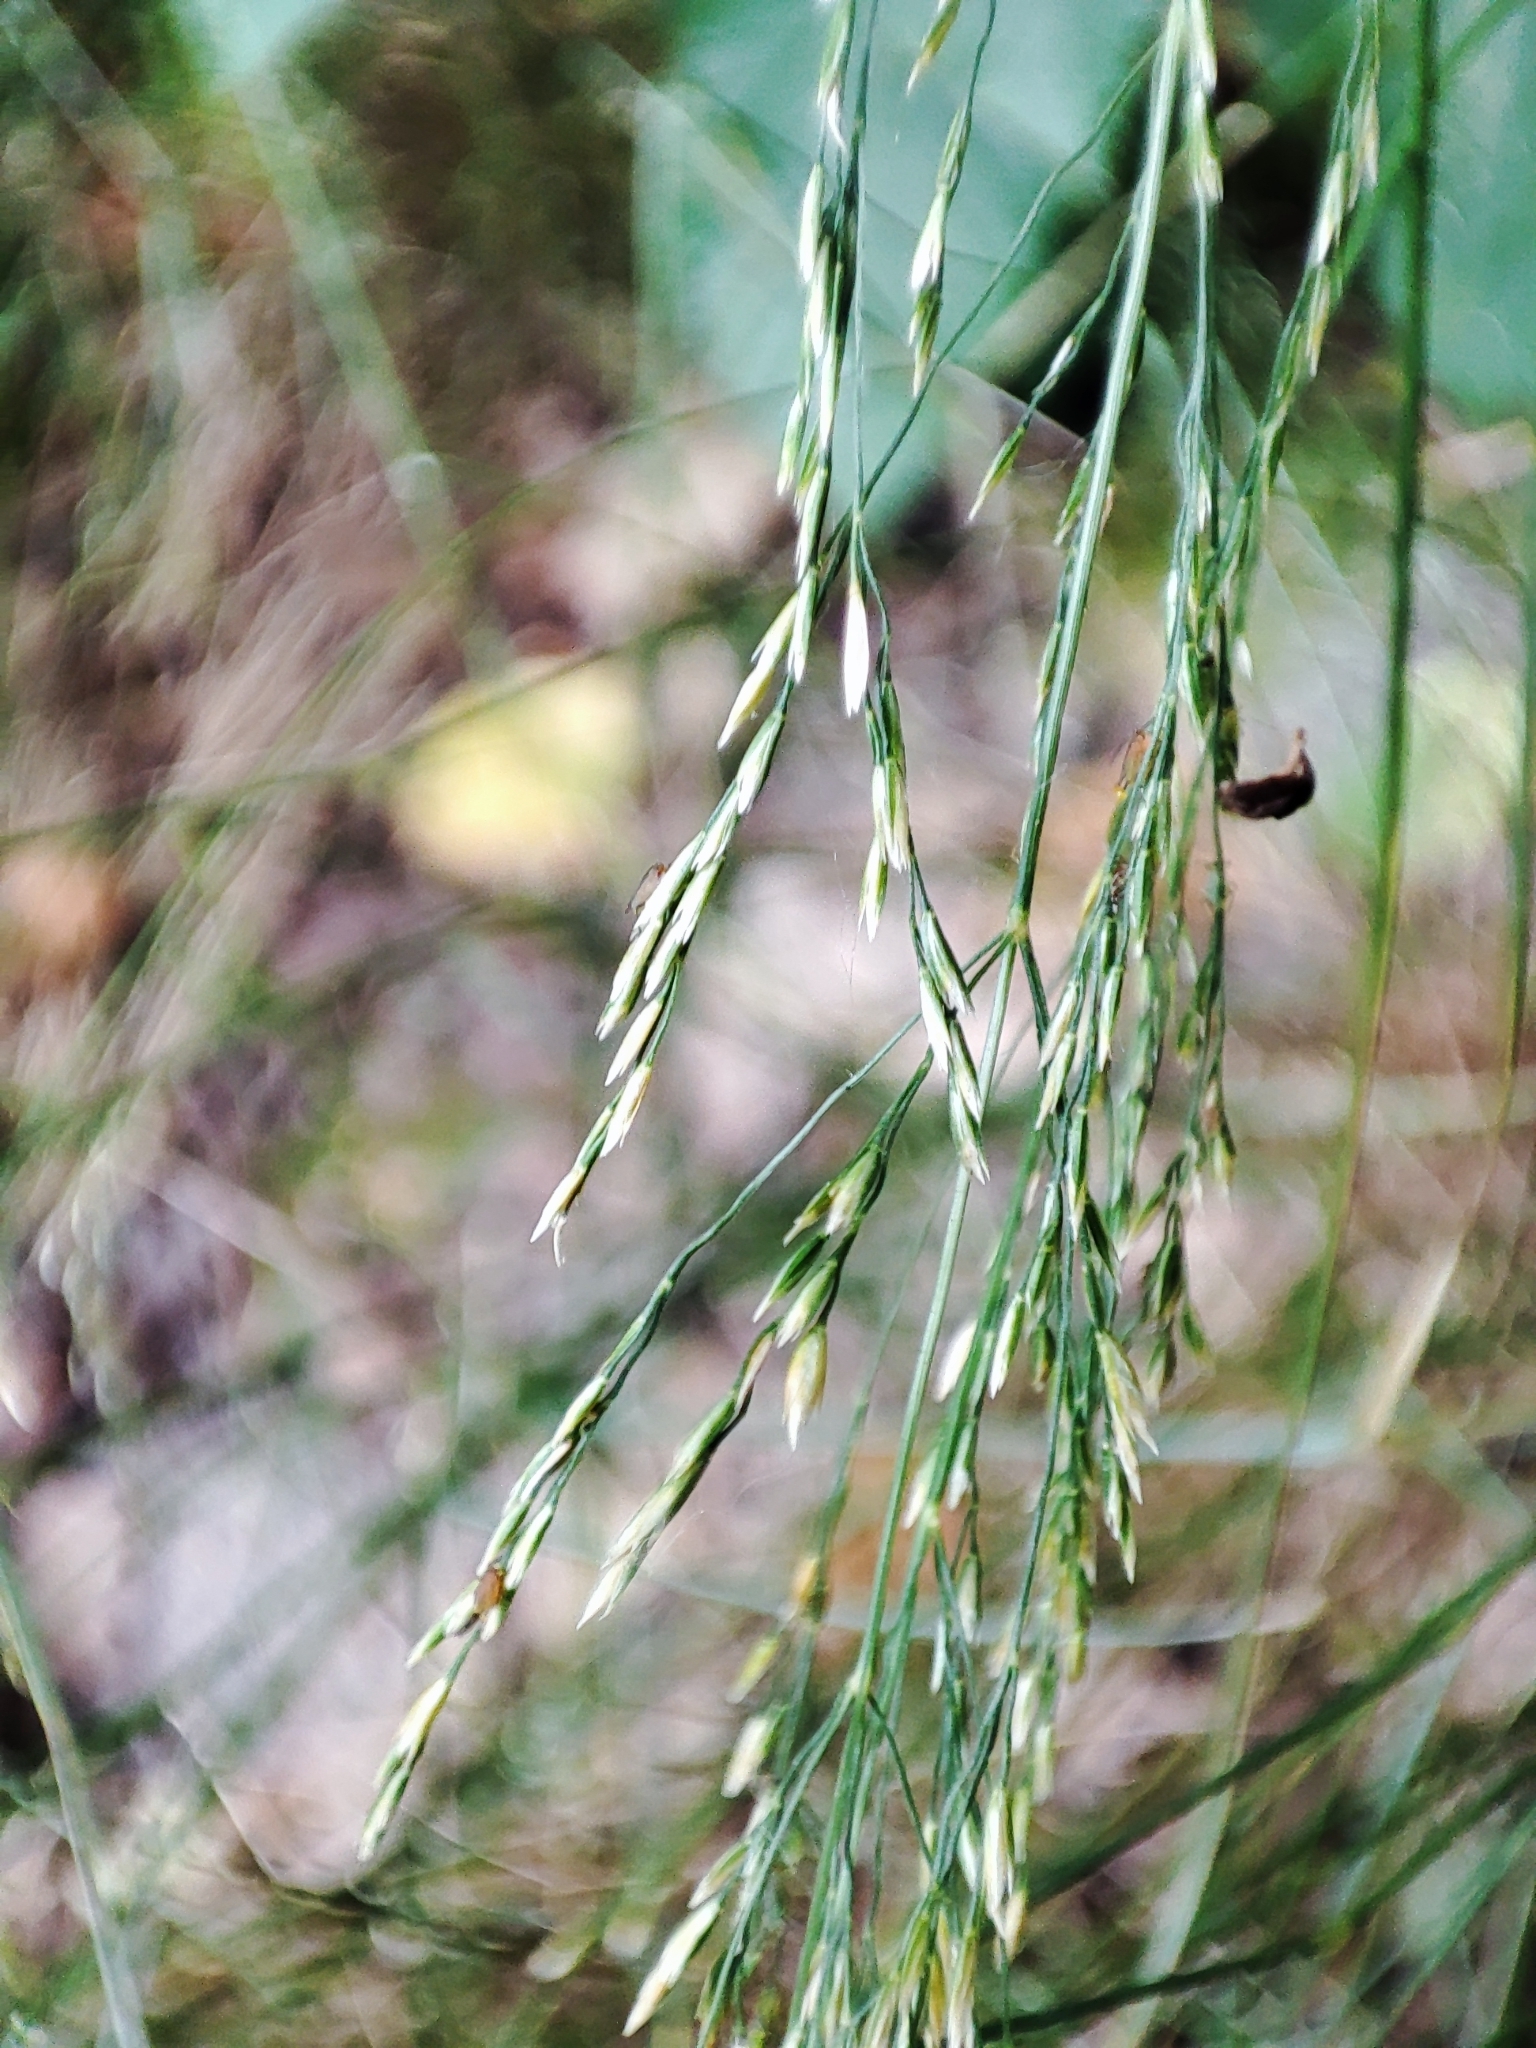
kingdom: Plantae
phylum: Tracheophyta
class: Liliopsida
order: Poales
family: Poaceae
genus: Poa
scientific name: Poa nemoralis
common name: Wood bluegrass
